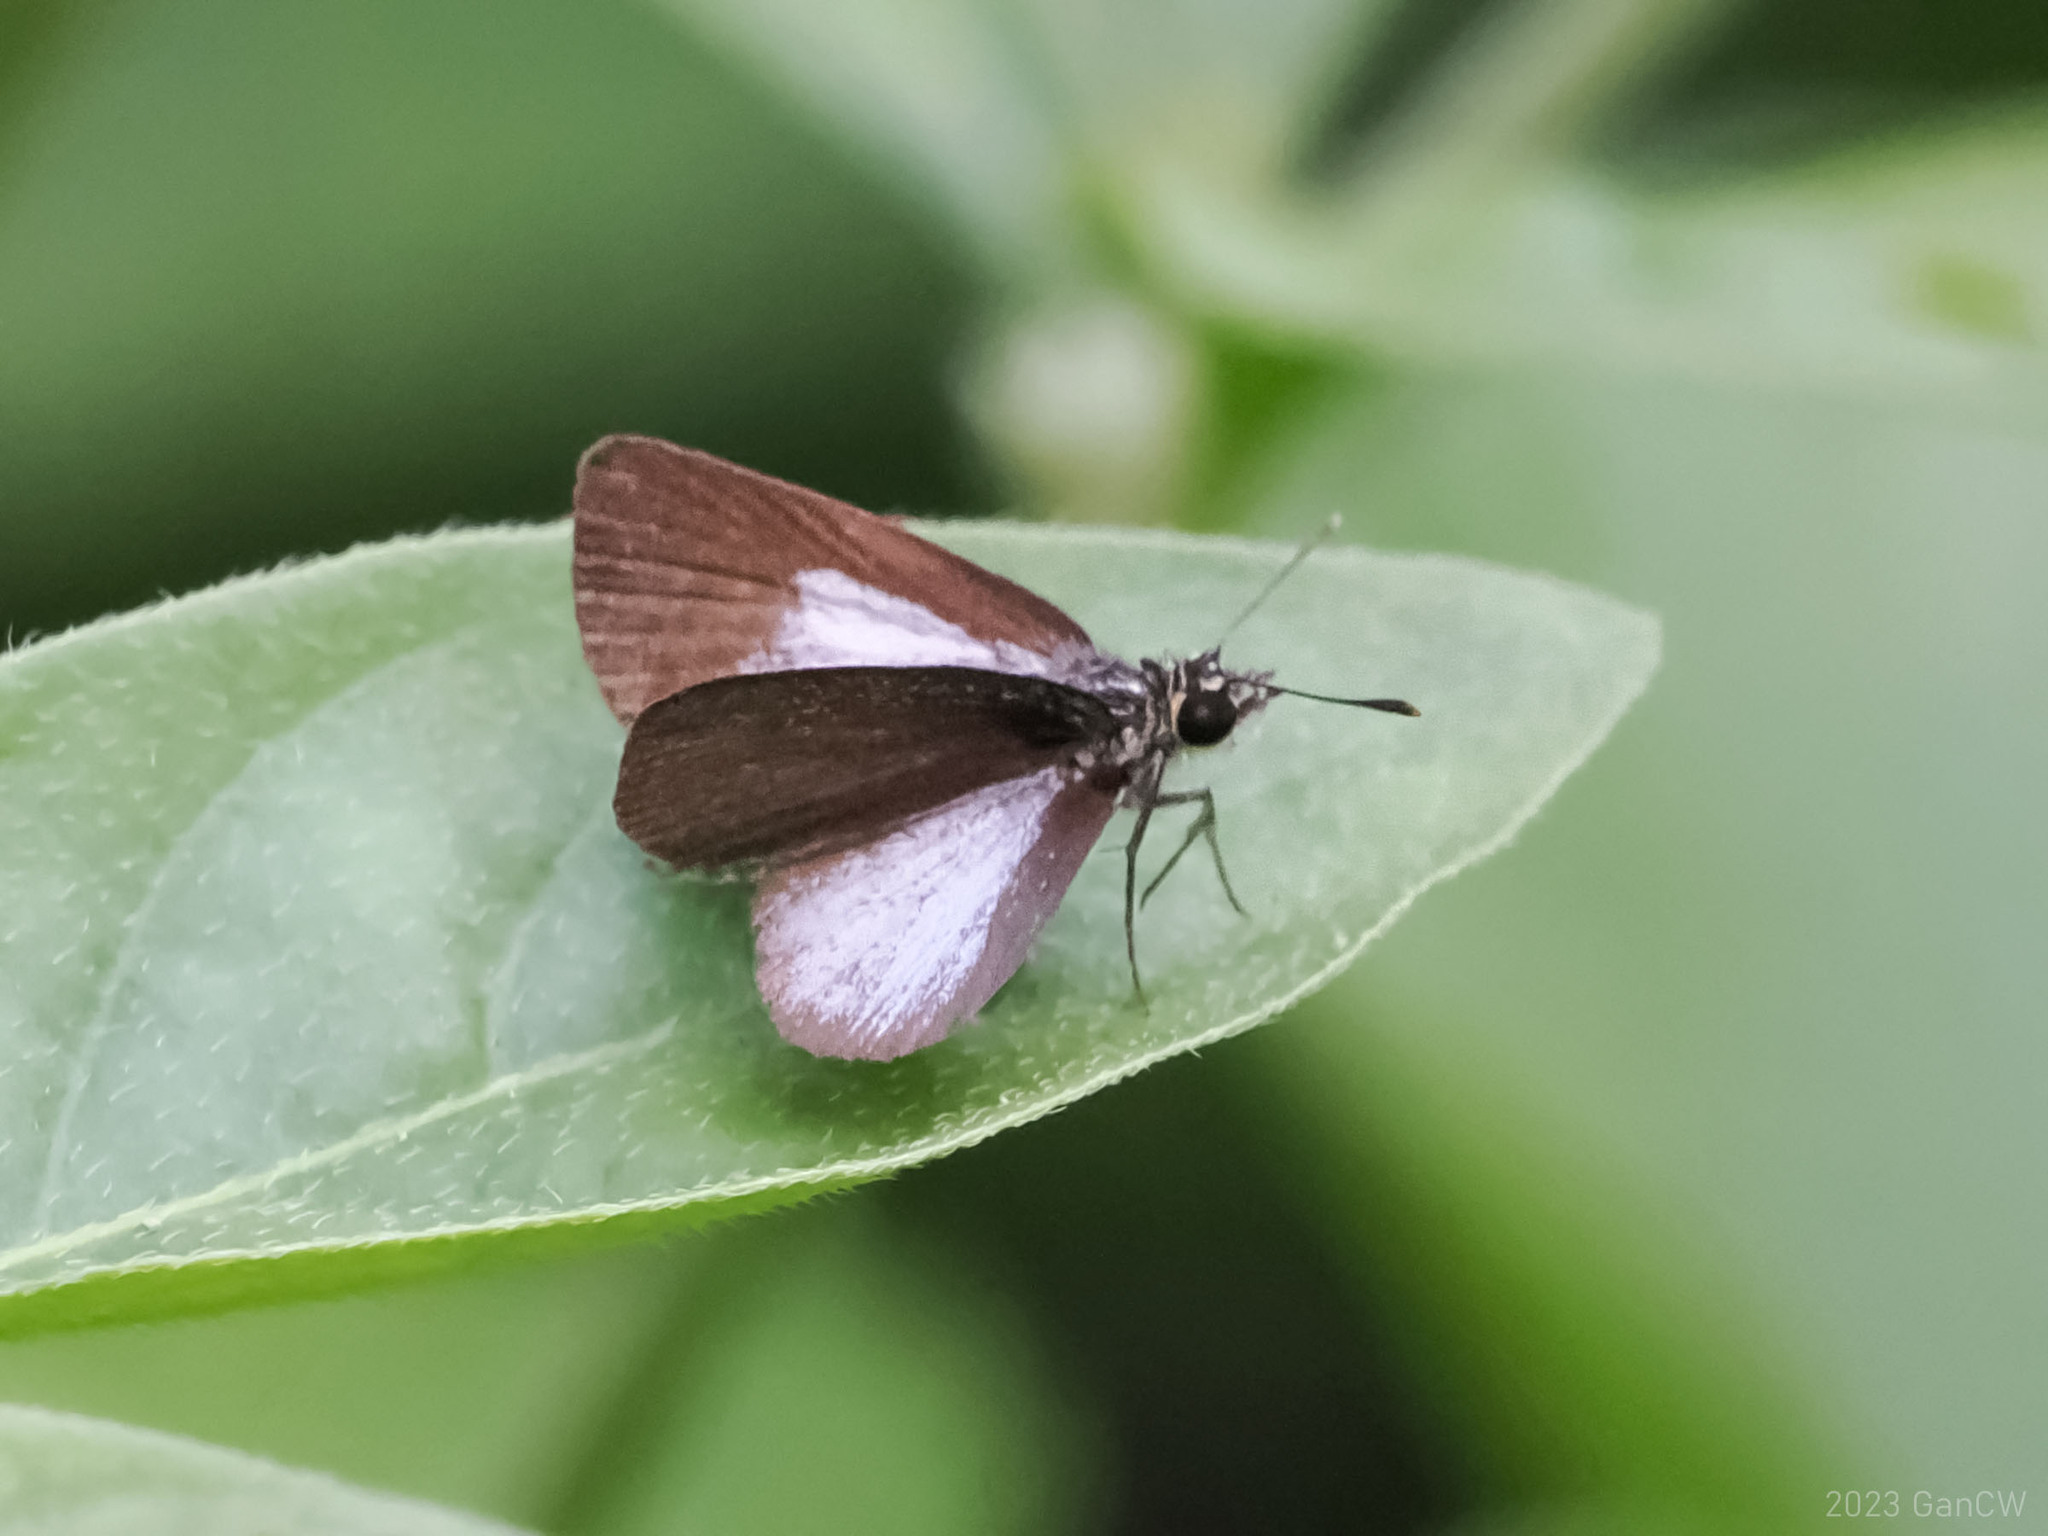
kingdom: Animalia
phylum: Arthropoda
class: Insecta
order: Lepidoptera
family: Hesperiidae
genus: Aeromachus
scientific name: Aeromachus plumbeola
